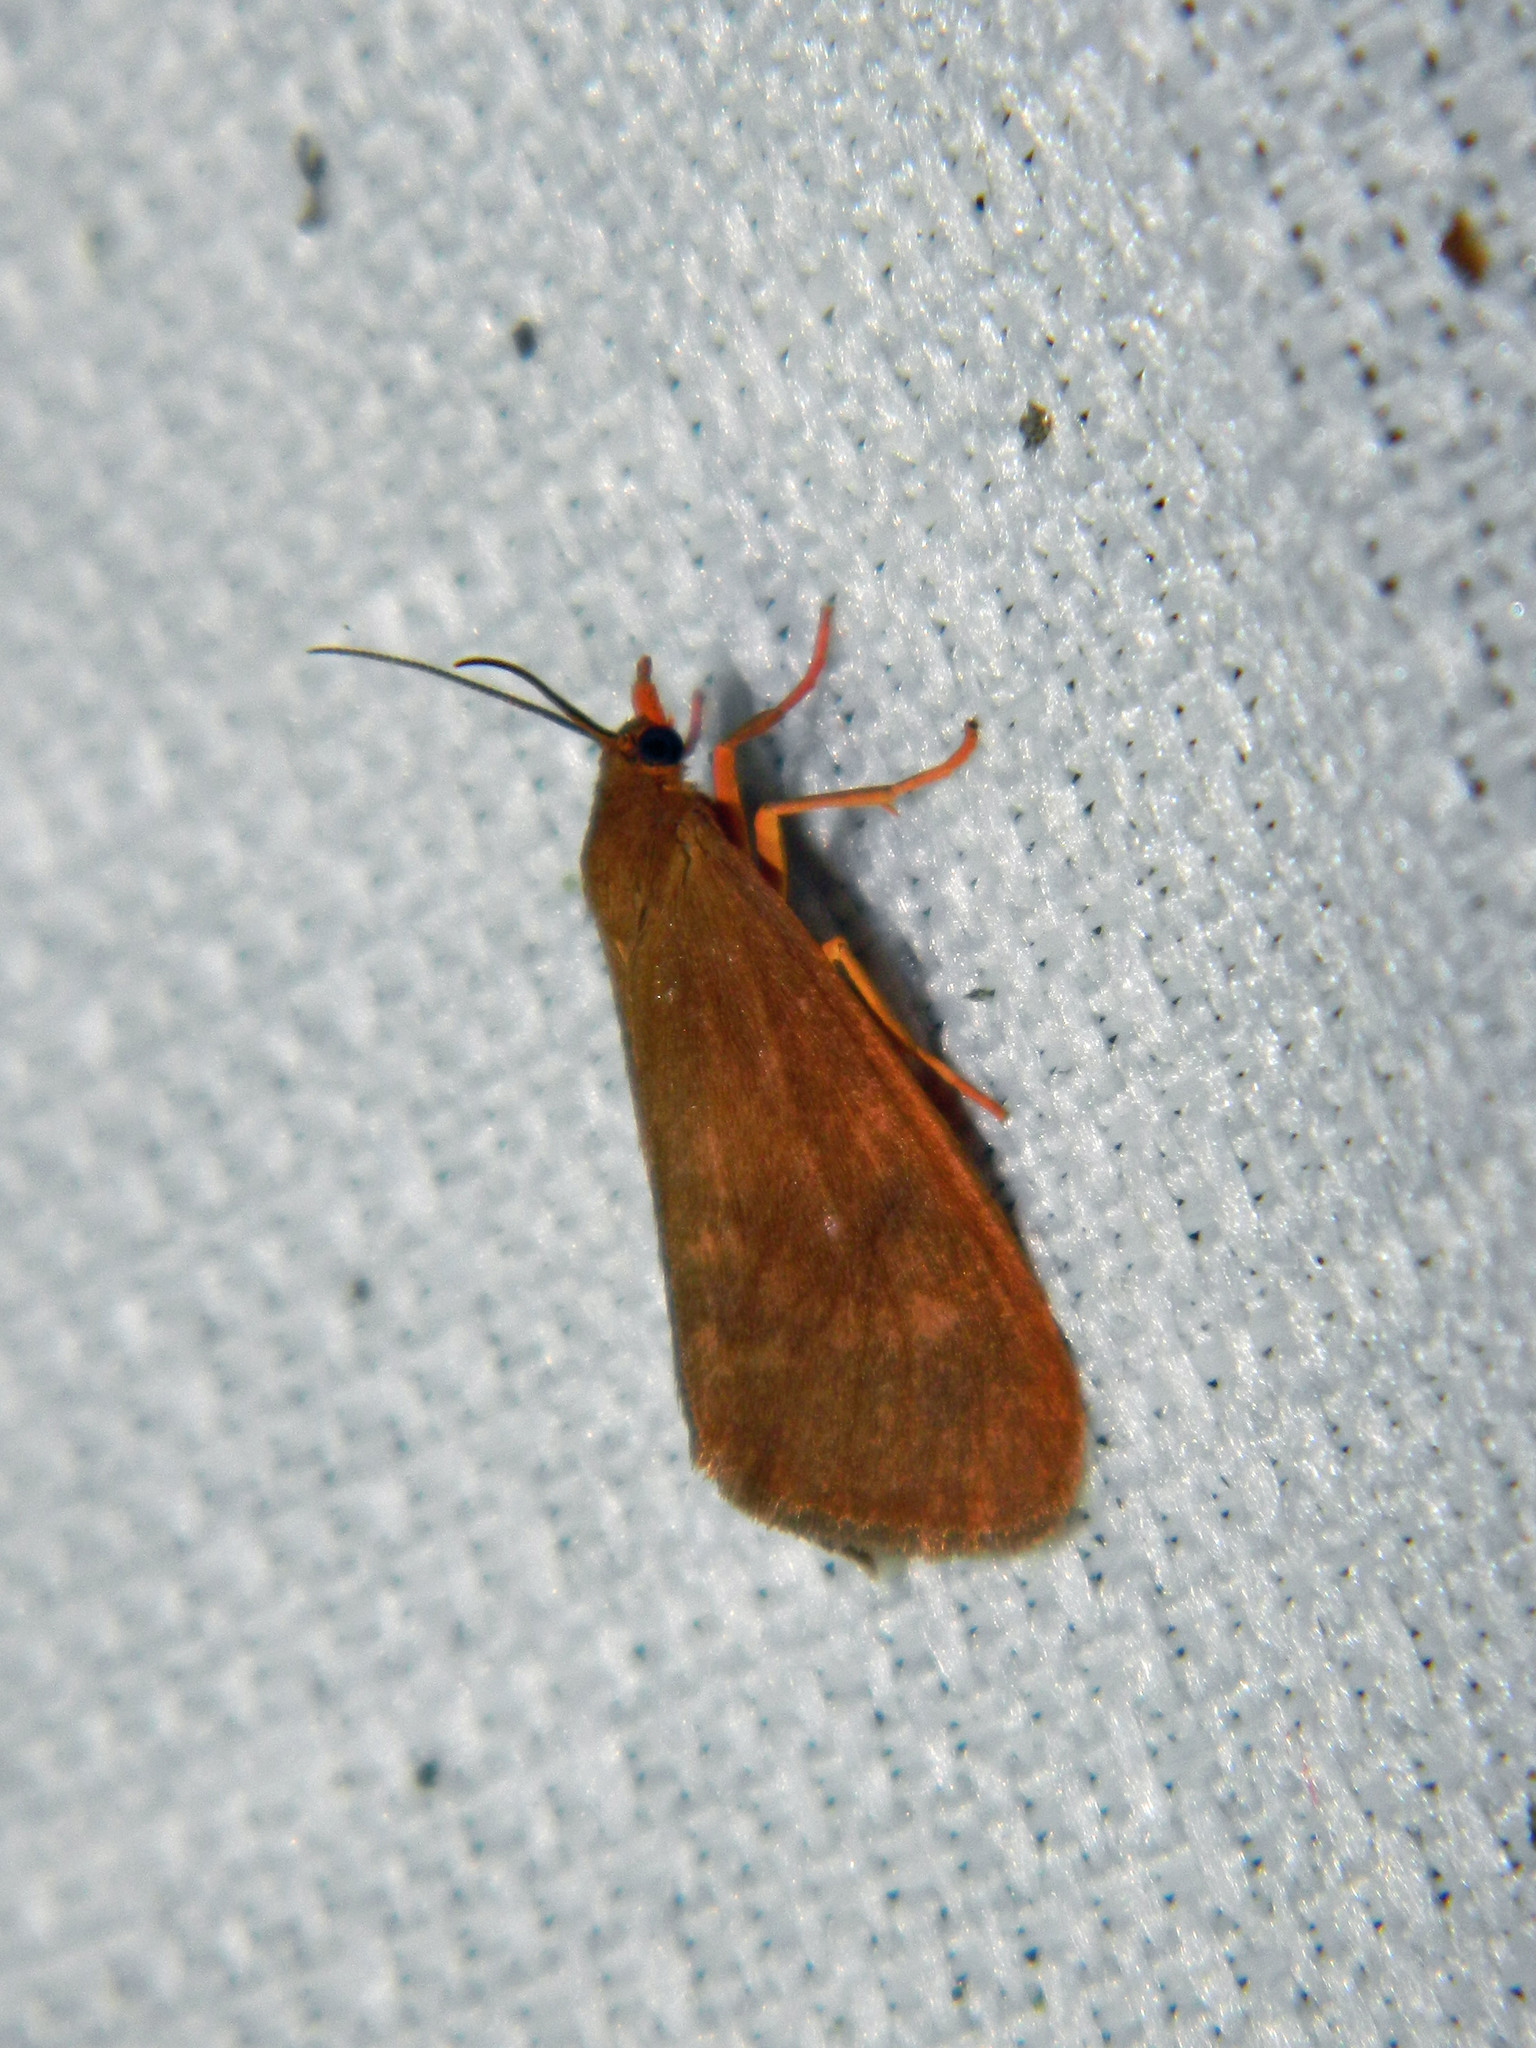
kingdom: Animalia
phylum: Arthropoda
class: Insecta
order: Lepidoptera
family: Erebidae
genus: Virbia
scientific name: Virbia ferruginosa
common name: Rusty virbia moth
